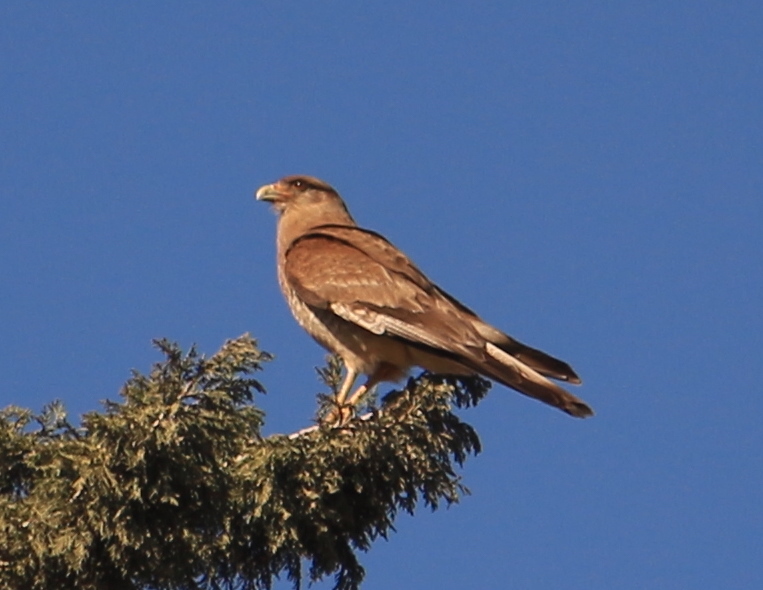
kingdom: Animalia
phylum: Chordata
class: Aves
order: Falconiformes
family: Falconidae
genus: Daptrius
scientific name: Daptrius
